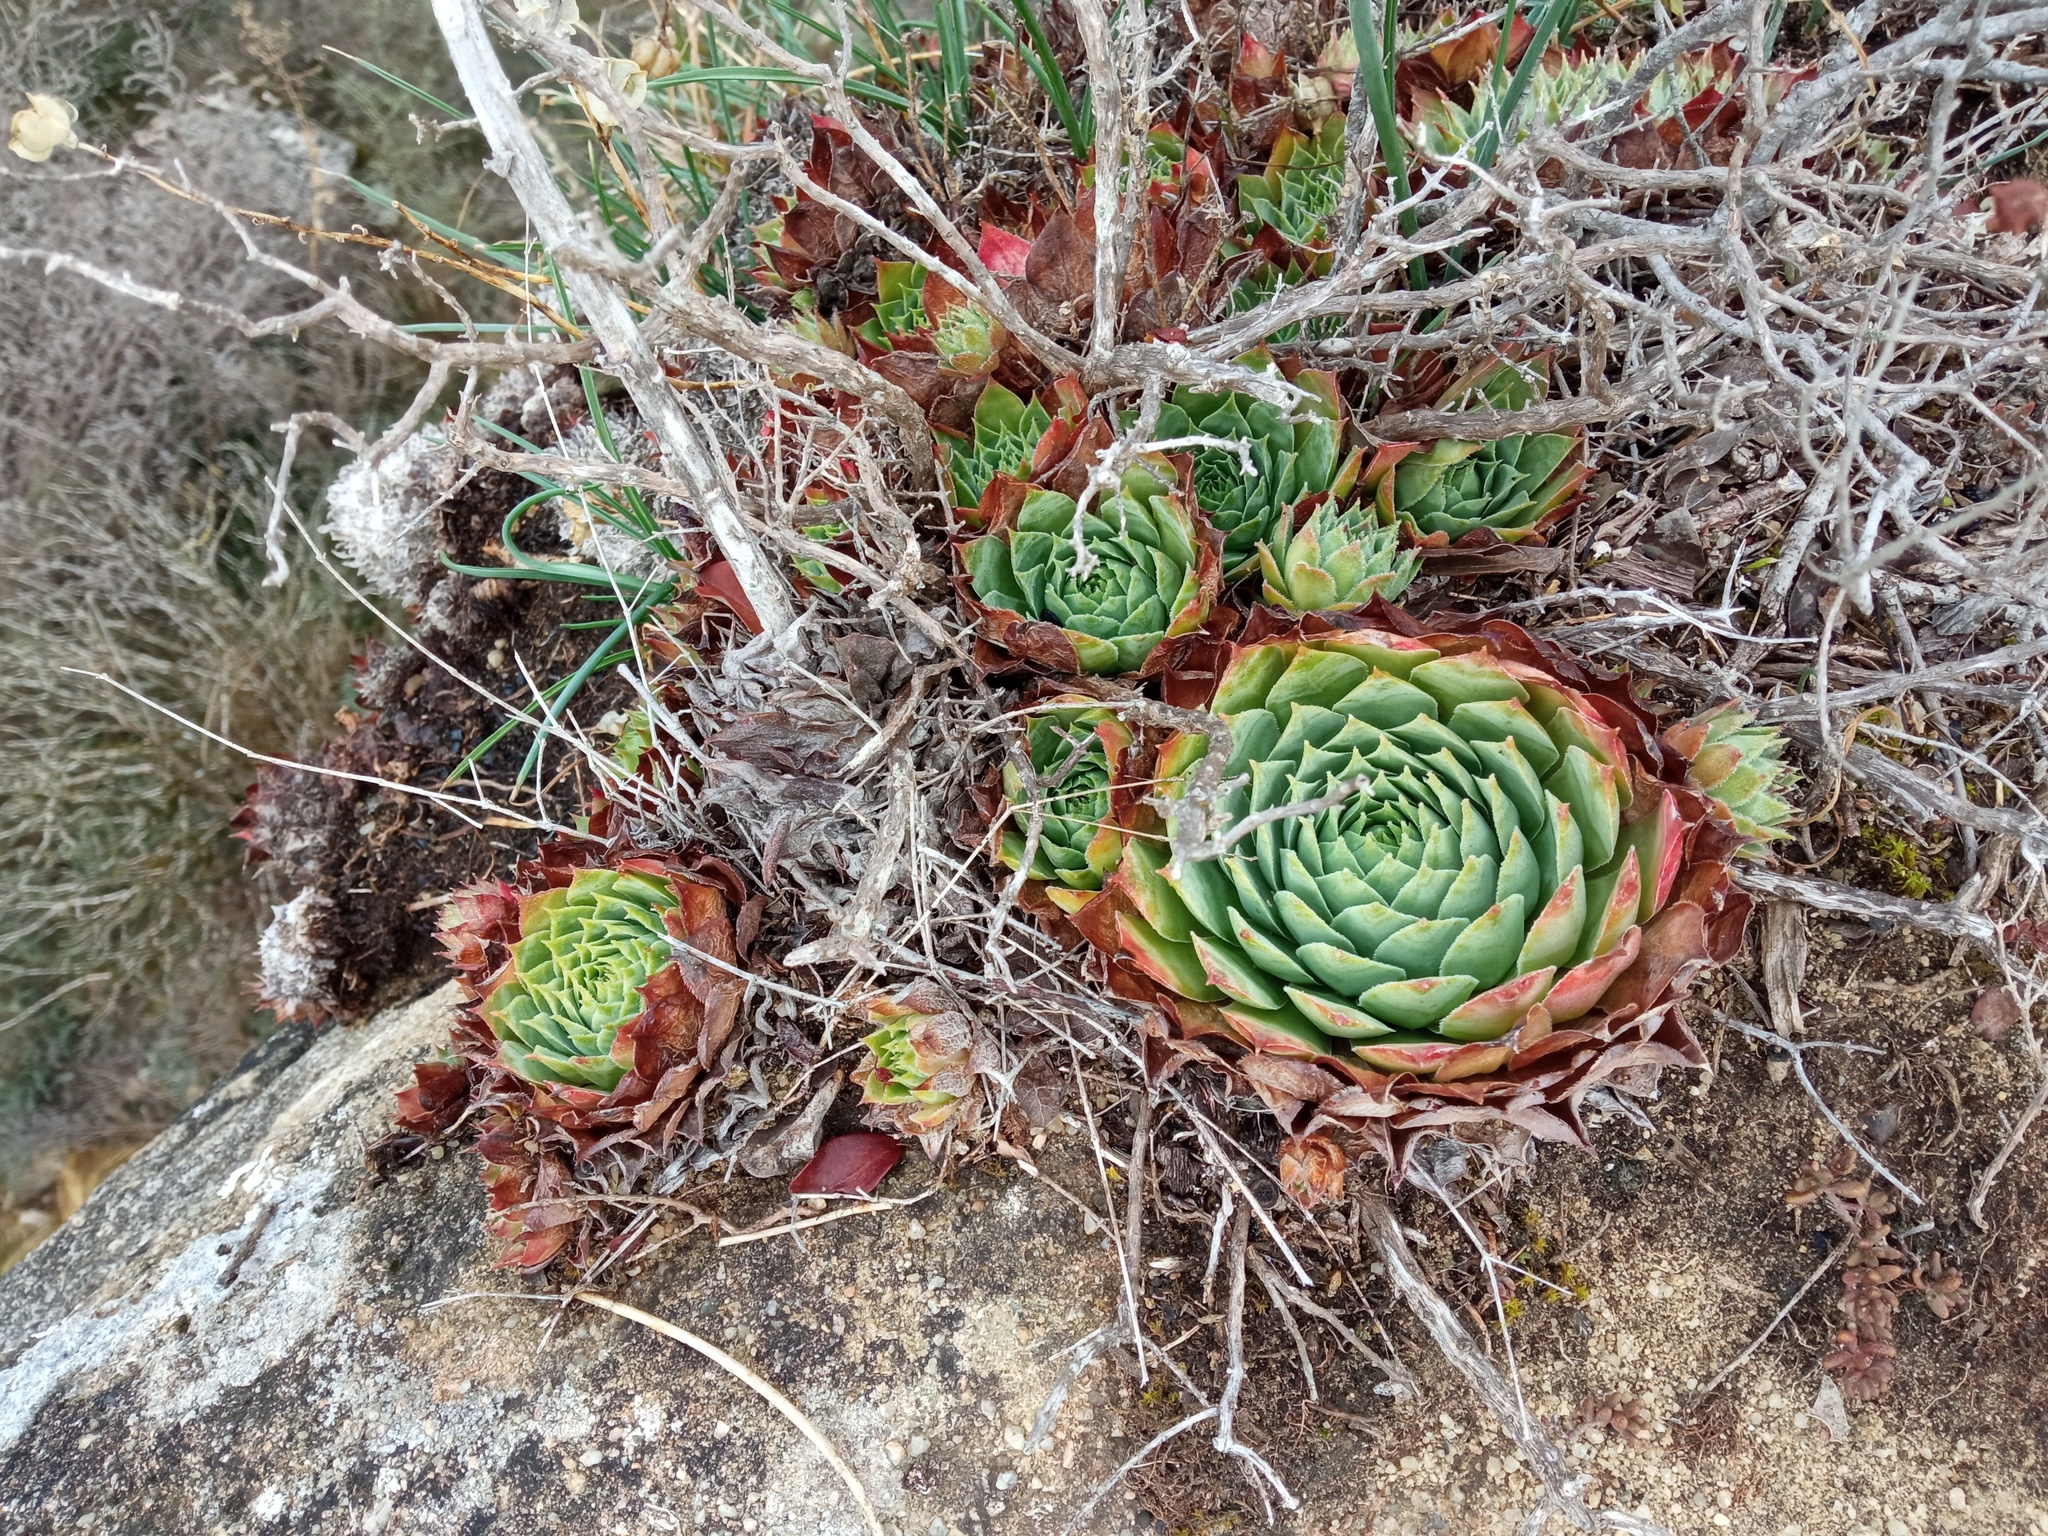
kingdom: Plantae
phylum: Tracheophyta
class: Magnoliopsida
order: Saxifragales
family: Crassulaceae
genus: Sempervivum
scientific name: Sempervivum tectorum
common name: House-leek
